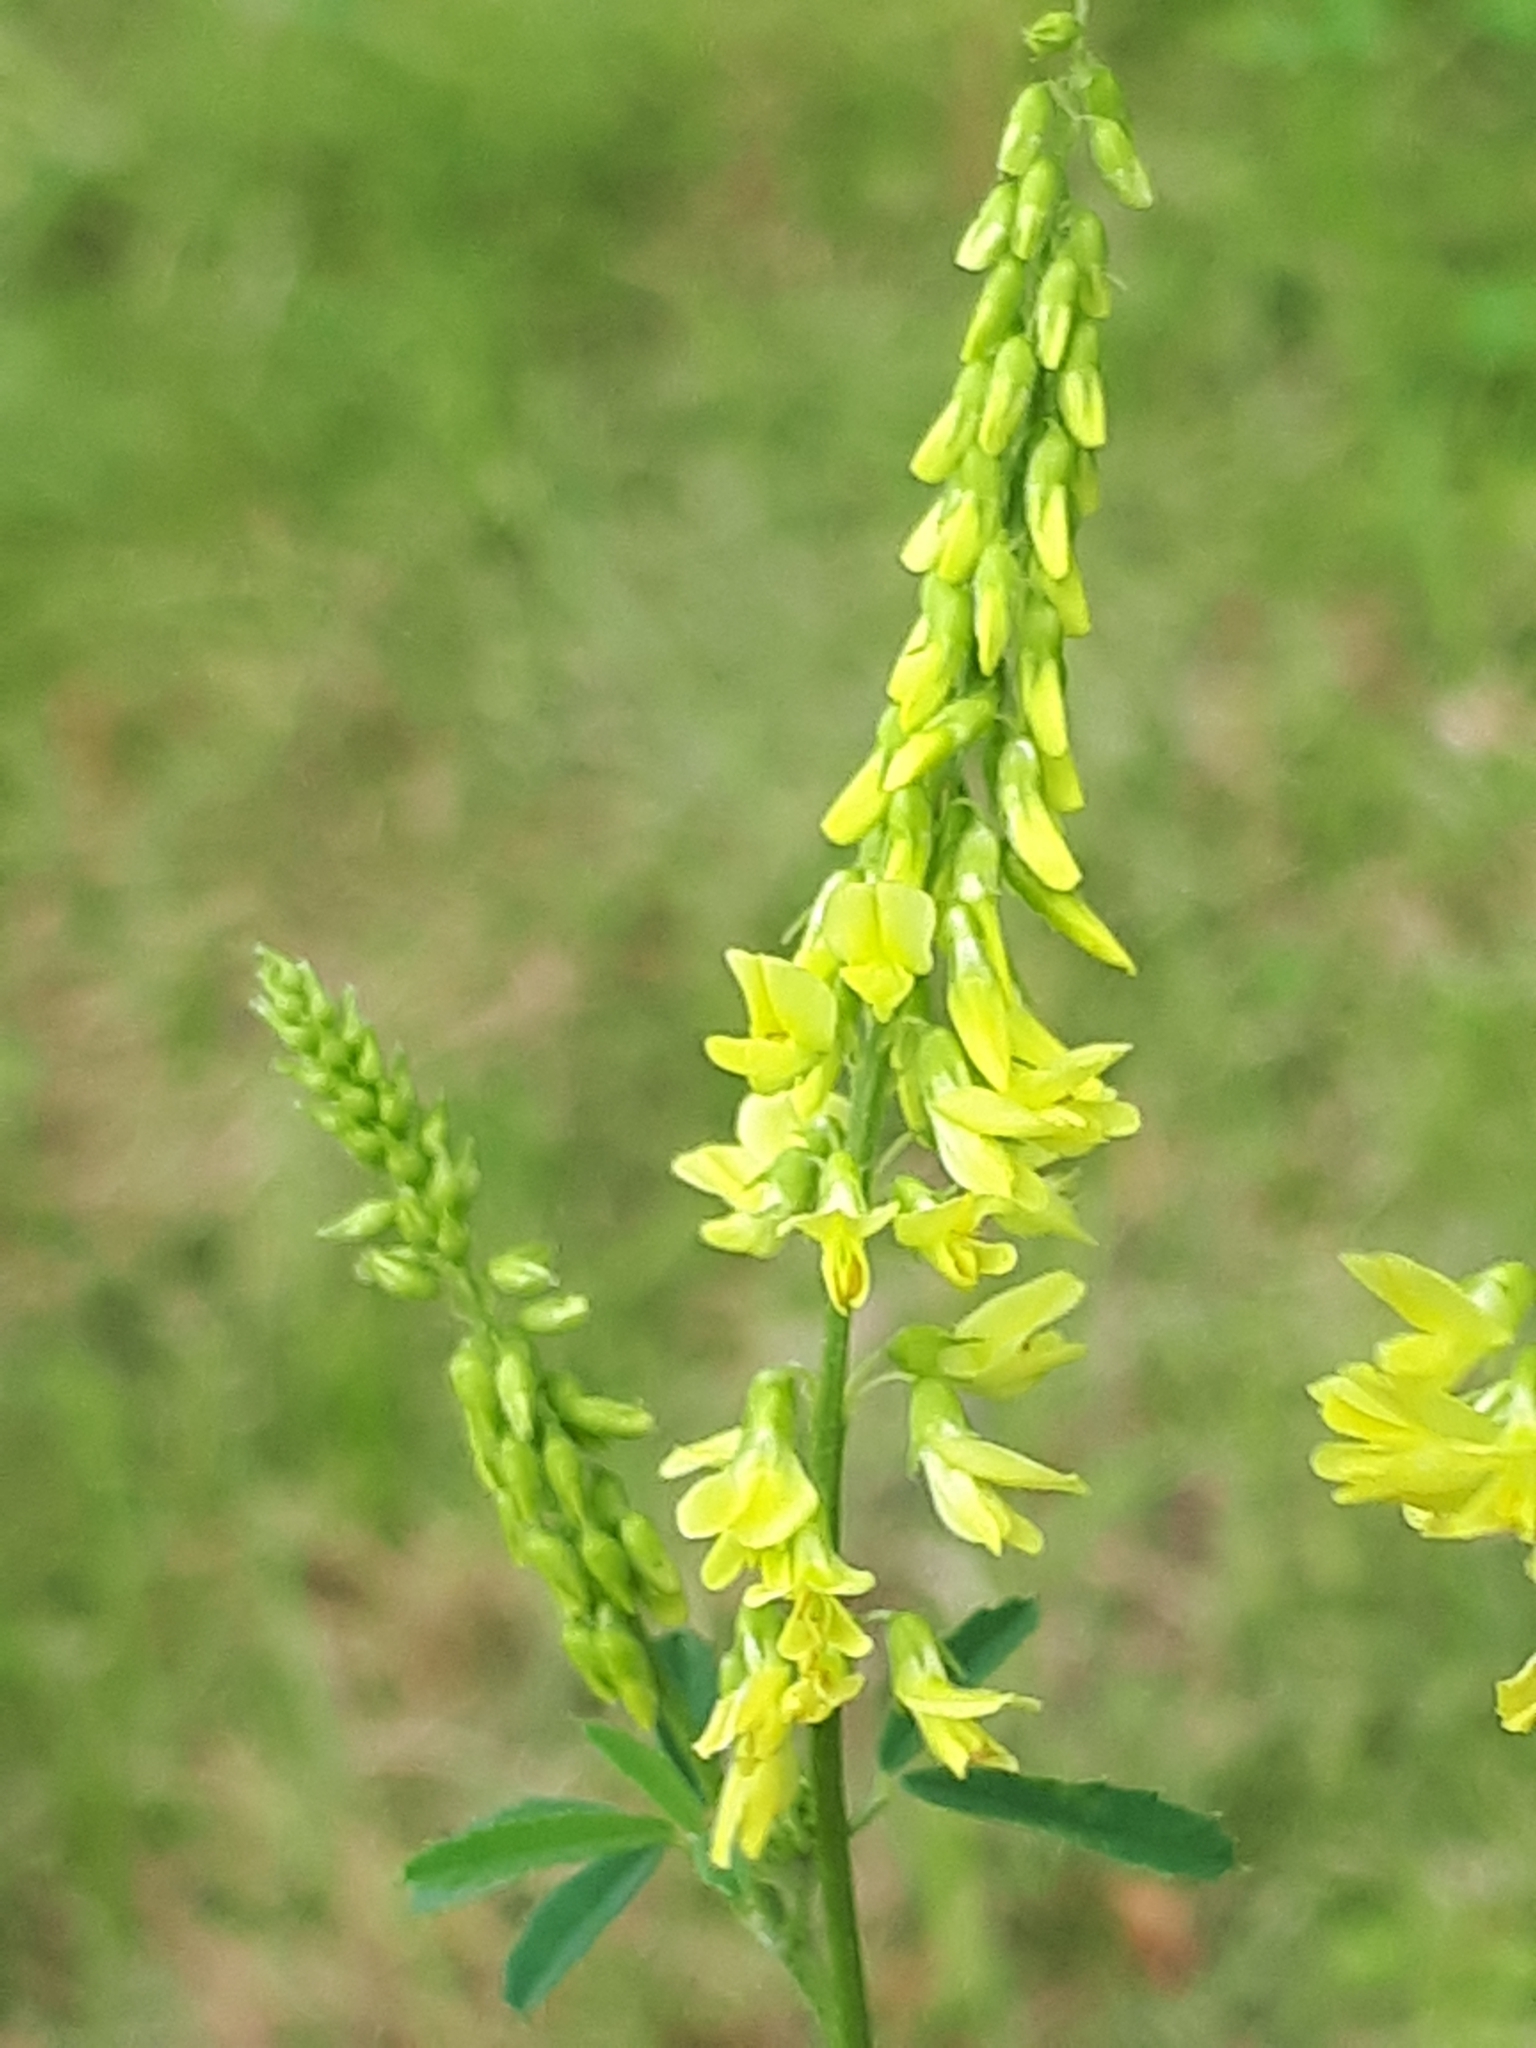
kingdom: Plantae
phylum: Tracheophyta
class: Magnoliopsida
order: Fabales
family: Fabaceae
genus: Melilotus
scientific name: Melilotus officinalis
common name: Sweetclover
